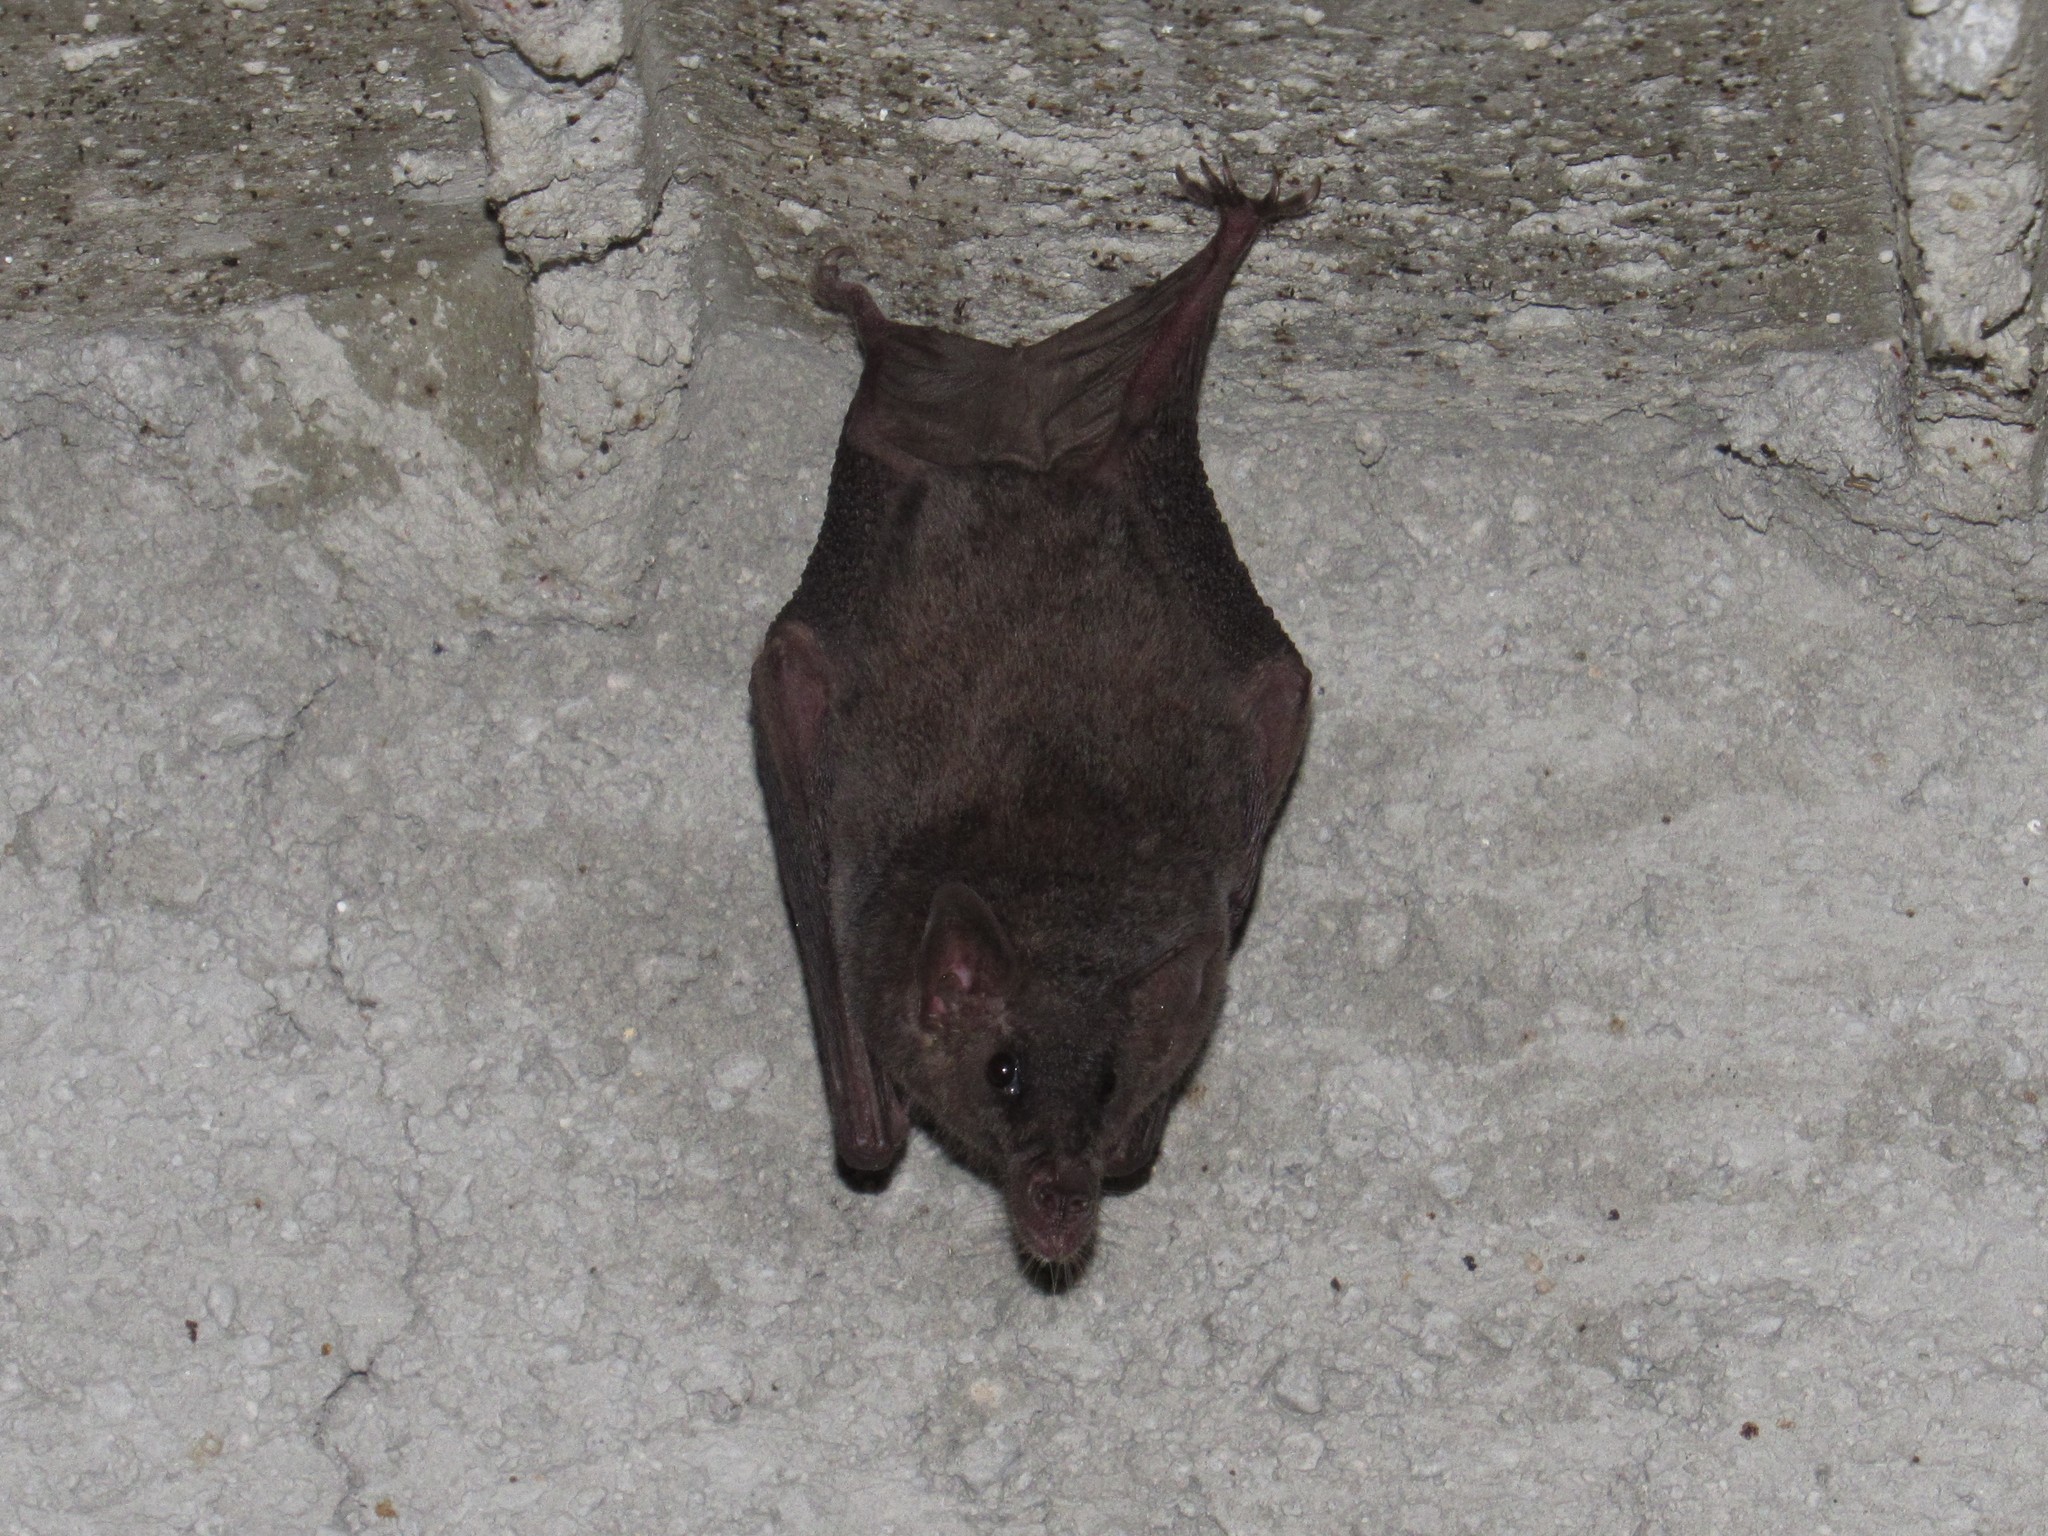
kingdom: Animalia
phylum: Chordata
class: Mammalia
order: Chiroptera
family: Phyllostomidae
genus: Choeronycteris
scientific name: Choeronycteris mexicana
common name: Mexican long-tongued bat
